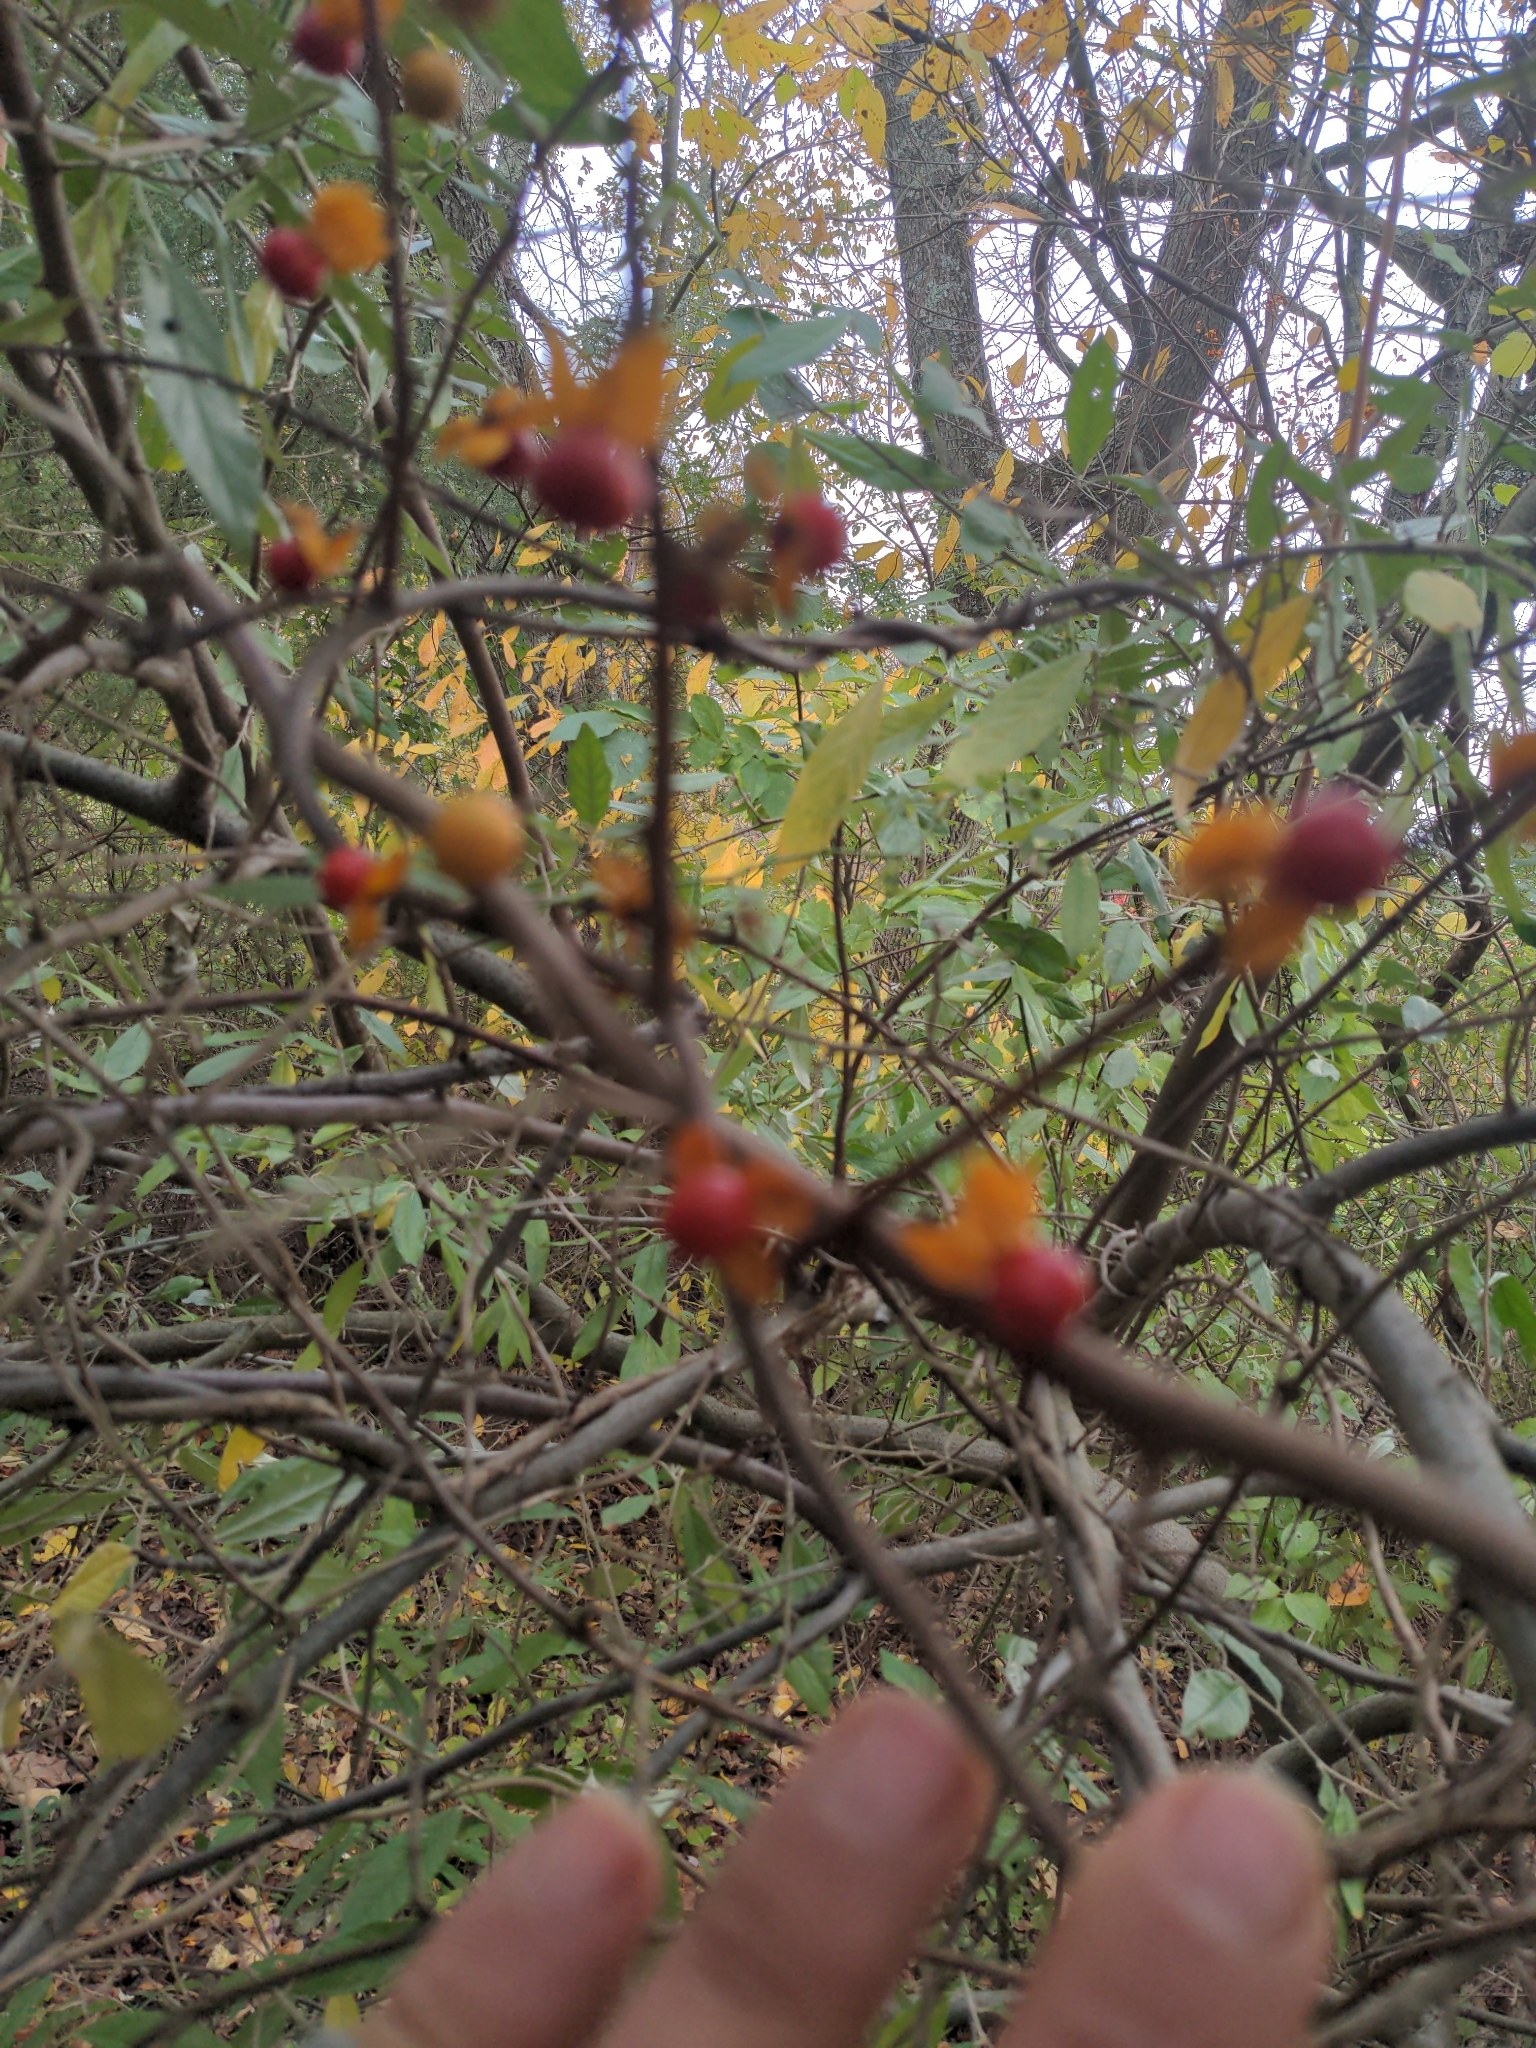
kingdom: Plantae
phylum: Tracheophyta
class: Magnoliopsida
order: Celastrales
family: Celastraceae
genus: Celastrus
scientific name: Celastrus orbiculatus
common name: Oriental bittersweet
